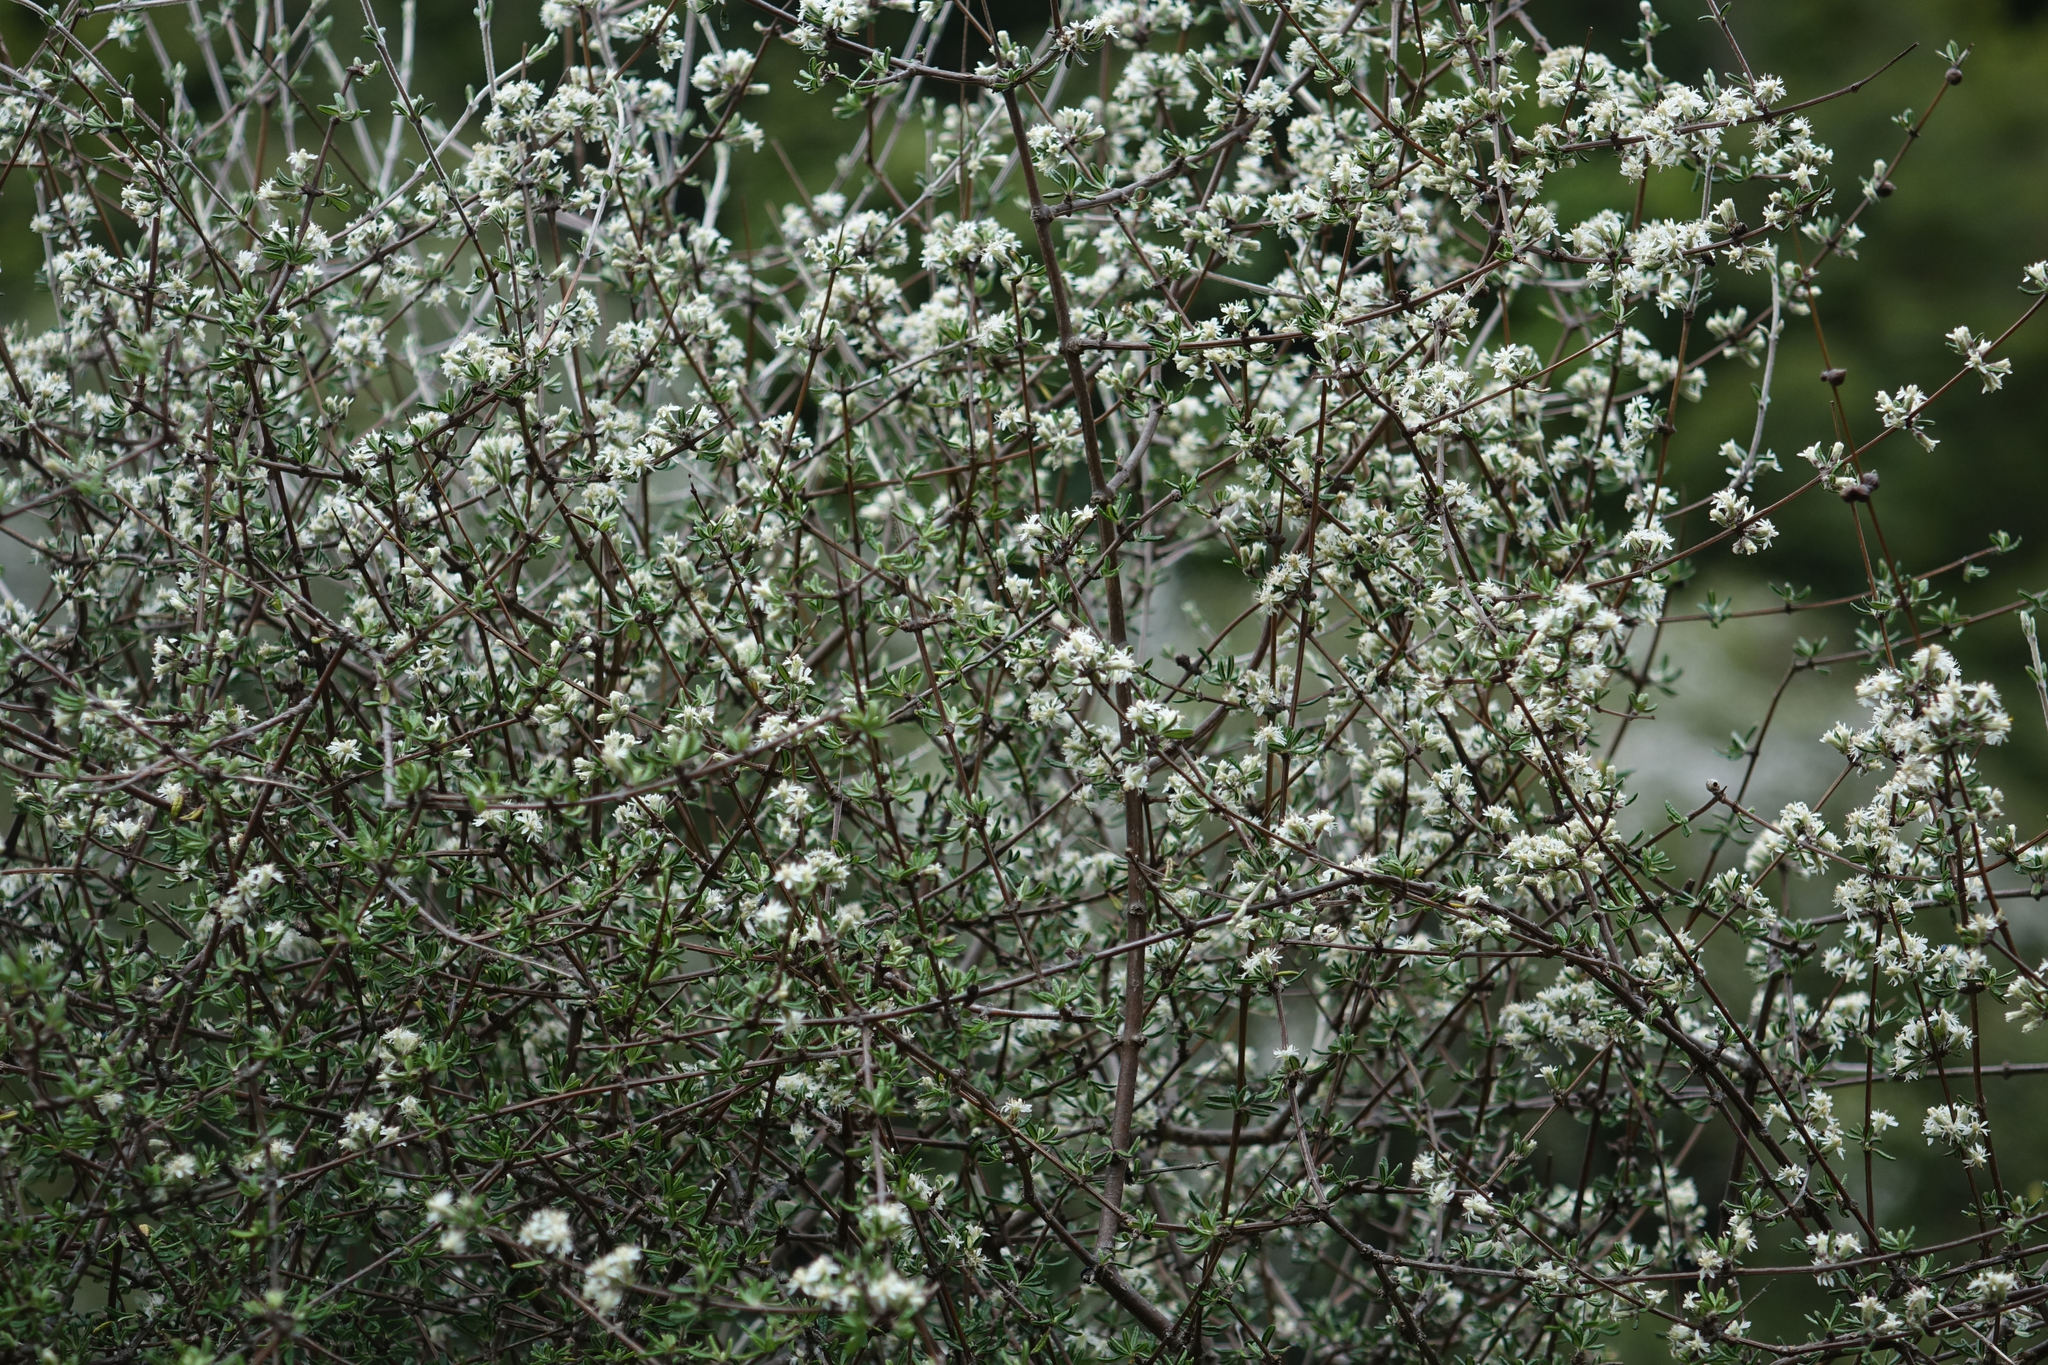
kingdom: Plantae
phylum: Tracheophyta
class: Magnoliopsida
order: Asterales
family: Asteraceae
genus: Olearia
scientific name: Olearia bullata
